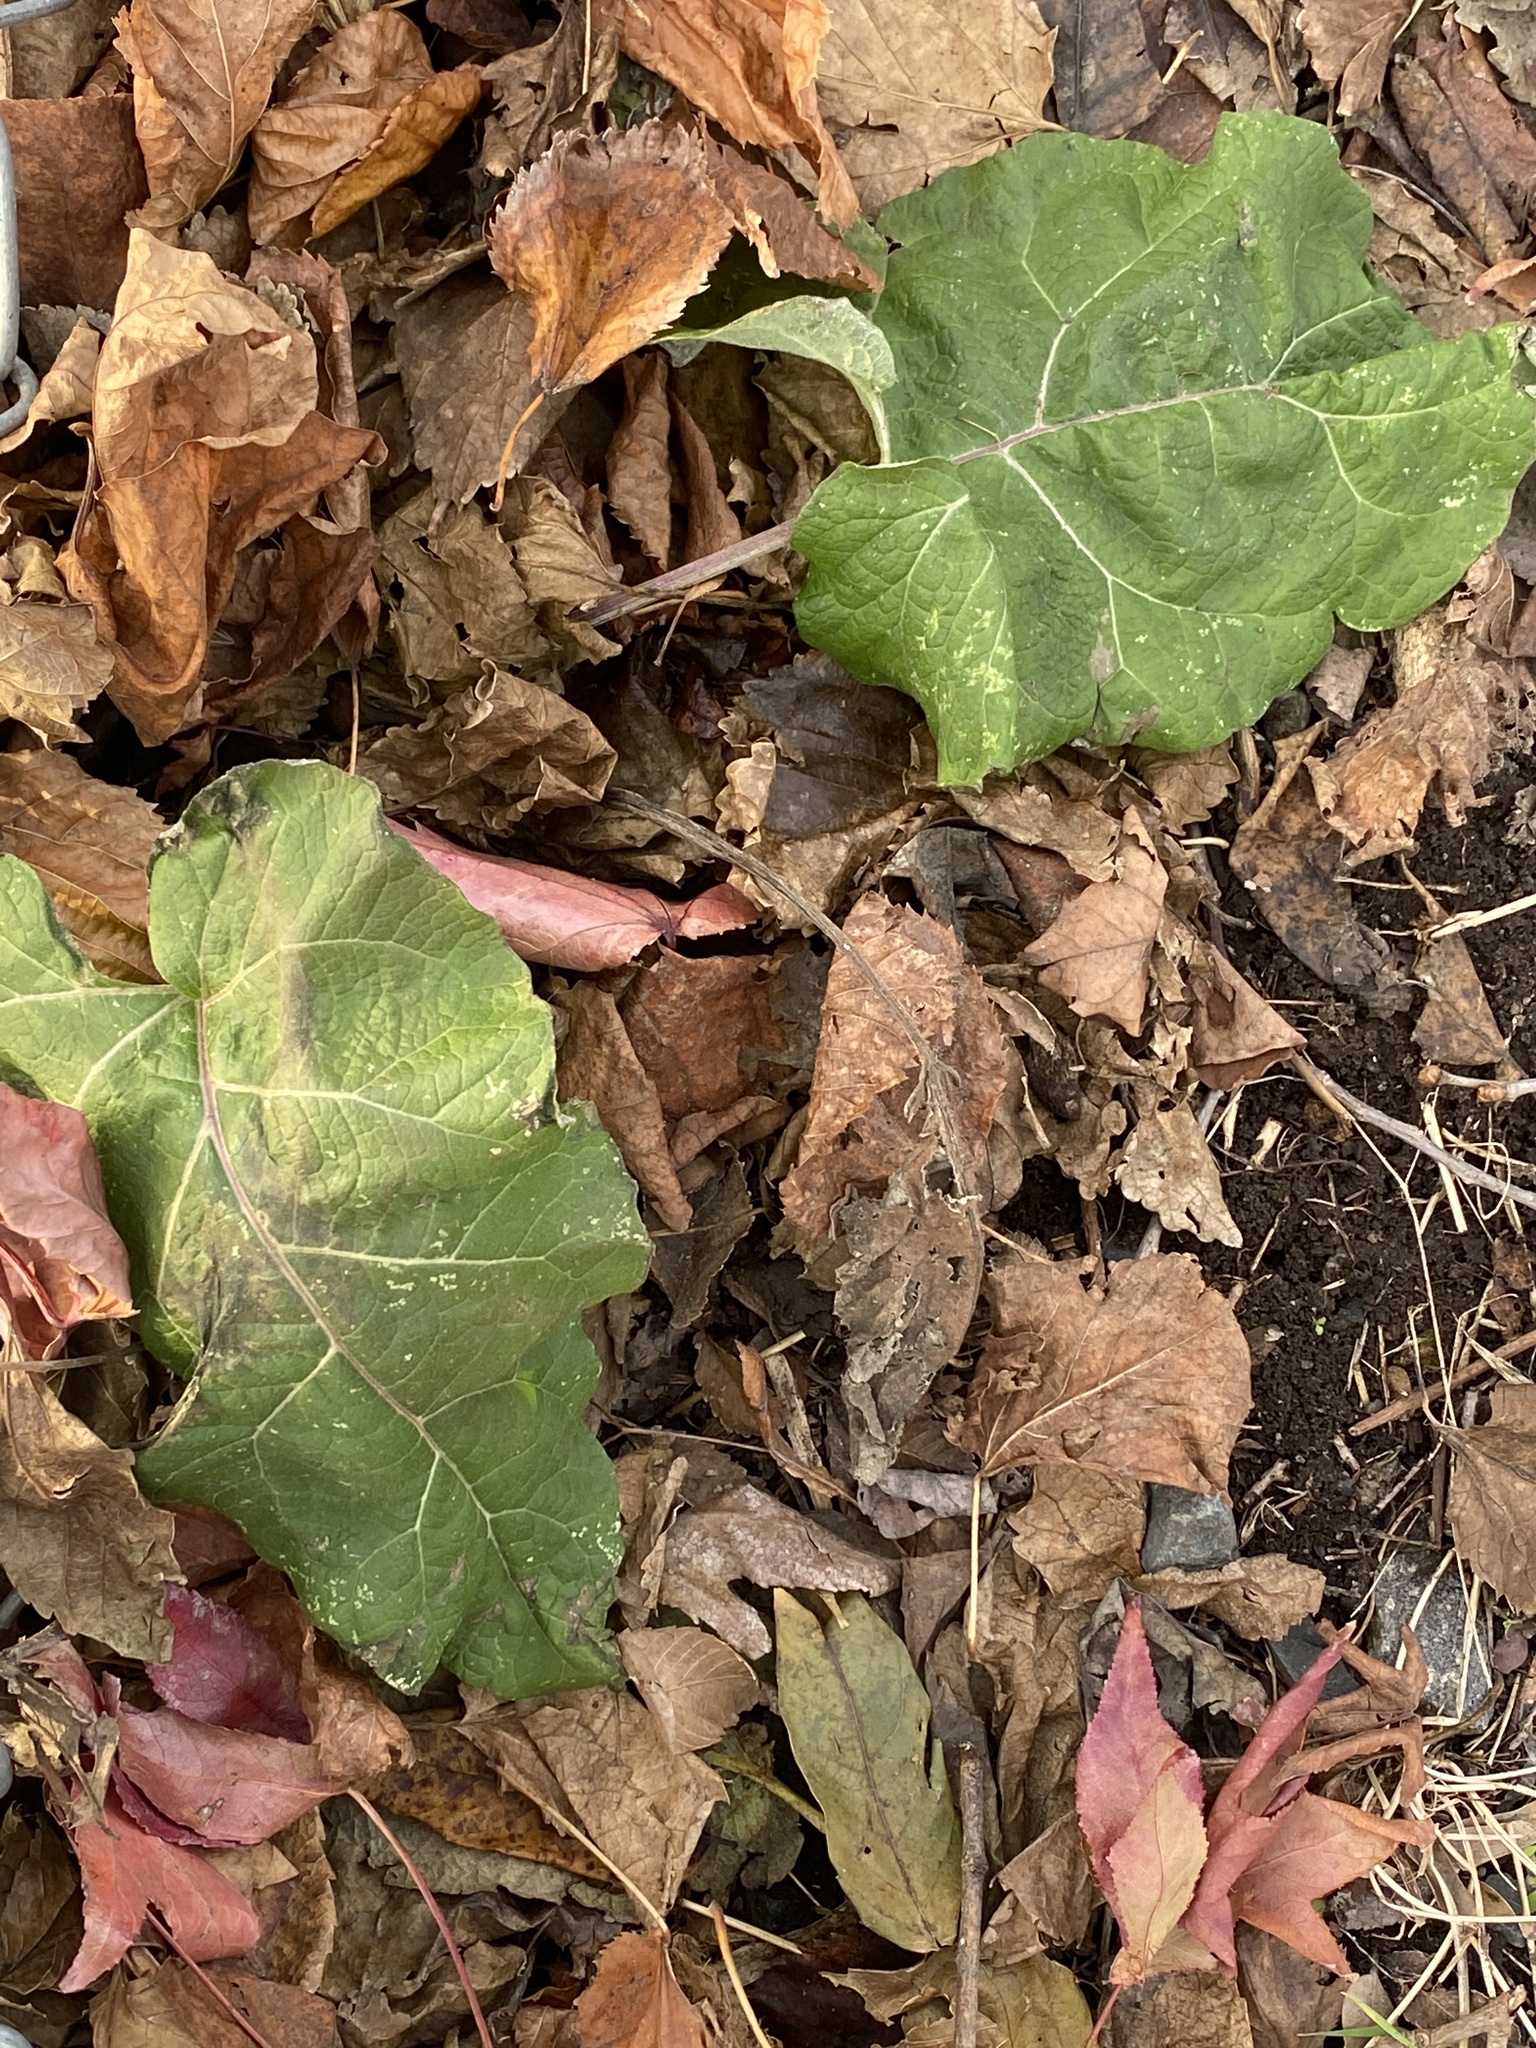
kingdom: Plantae
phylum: Tracheophyta
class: Magnoliopsida
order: Asterales
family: Asteraceae
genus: Arctium
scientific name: Arctium
